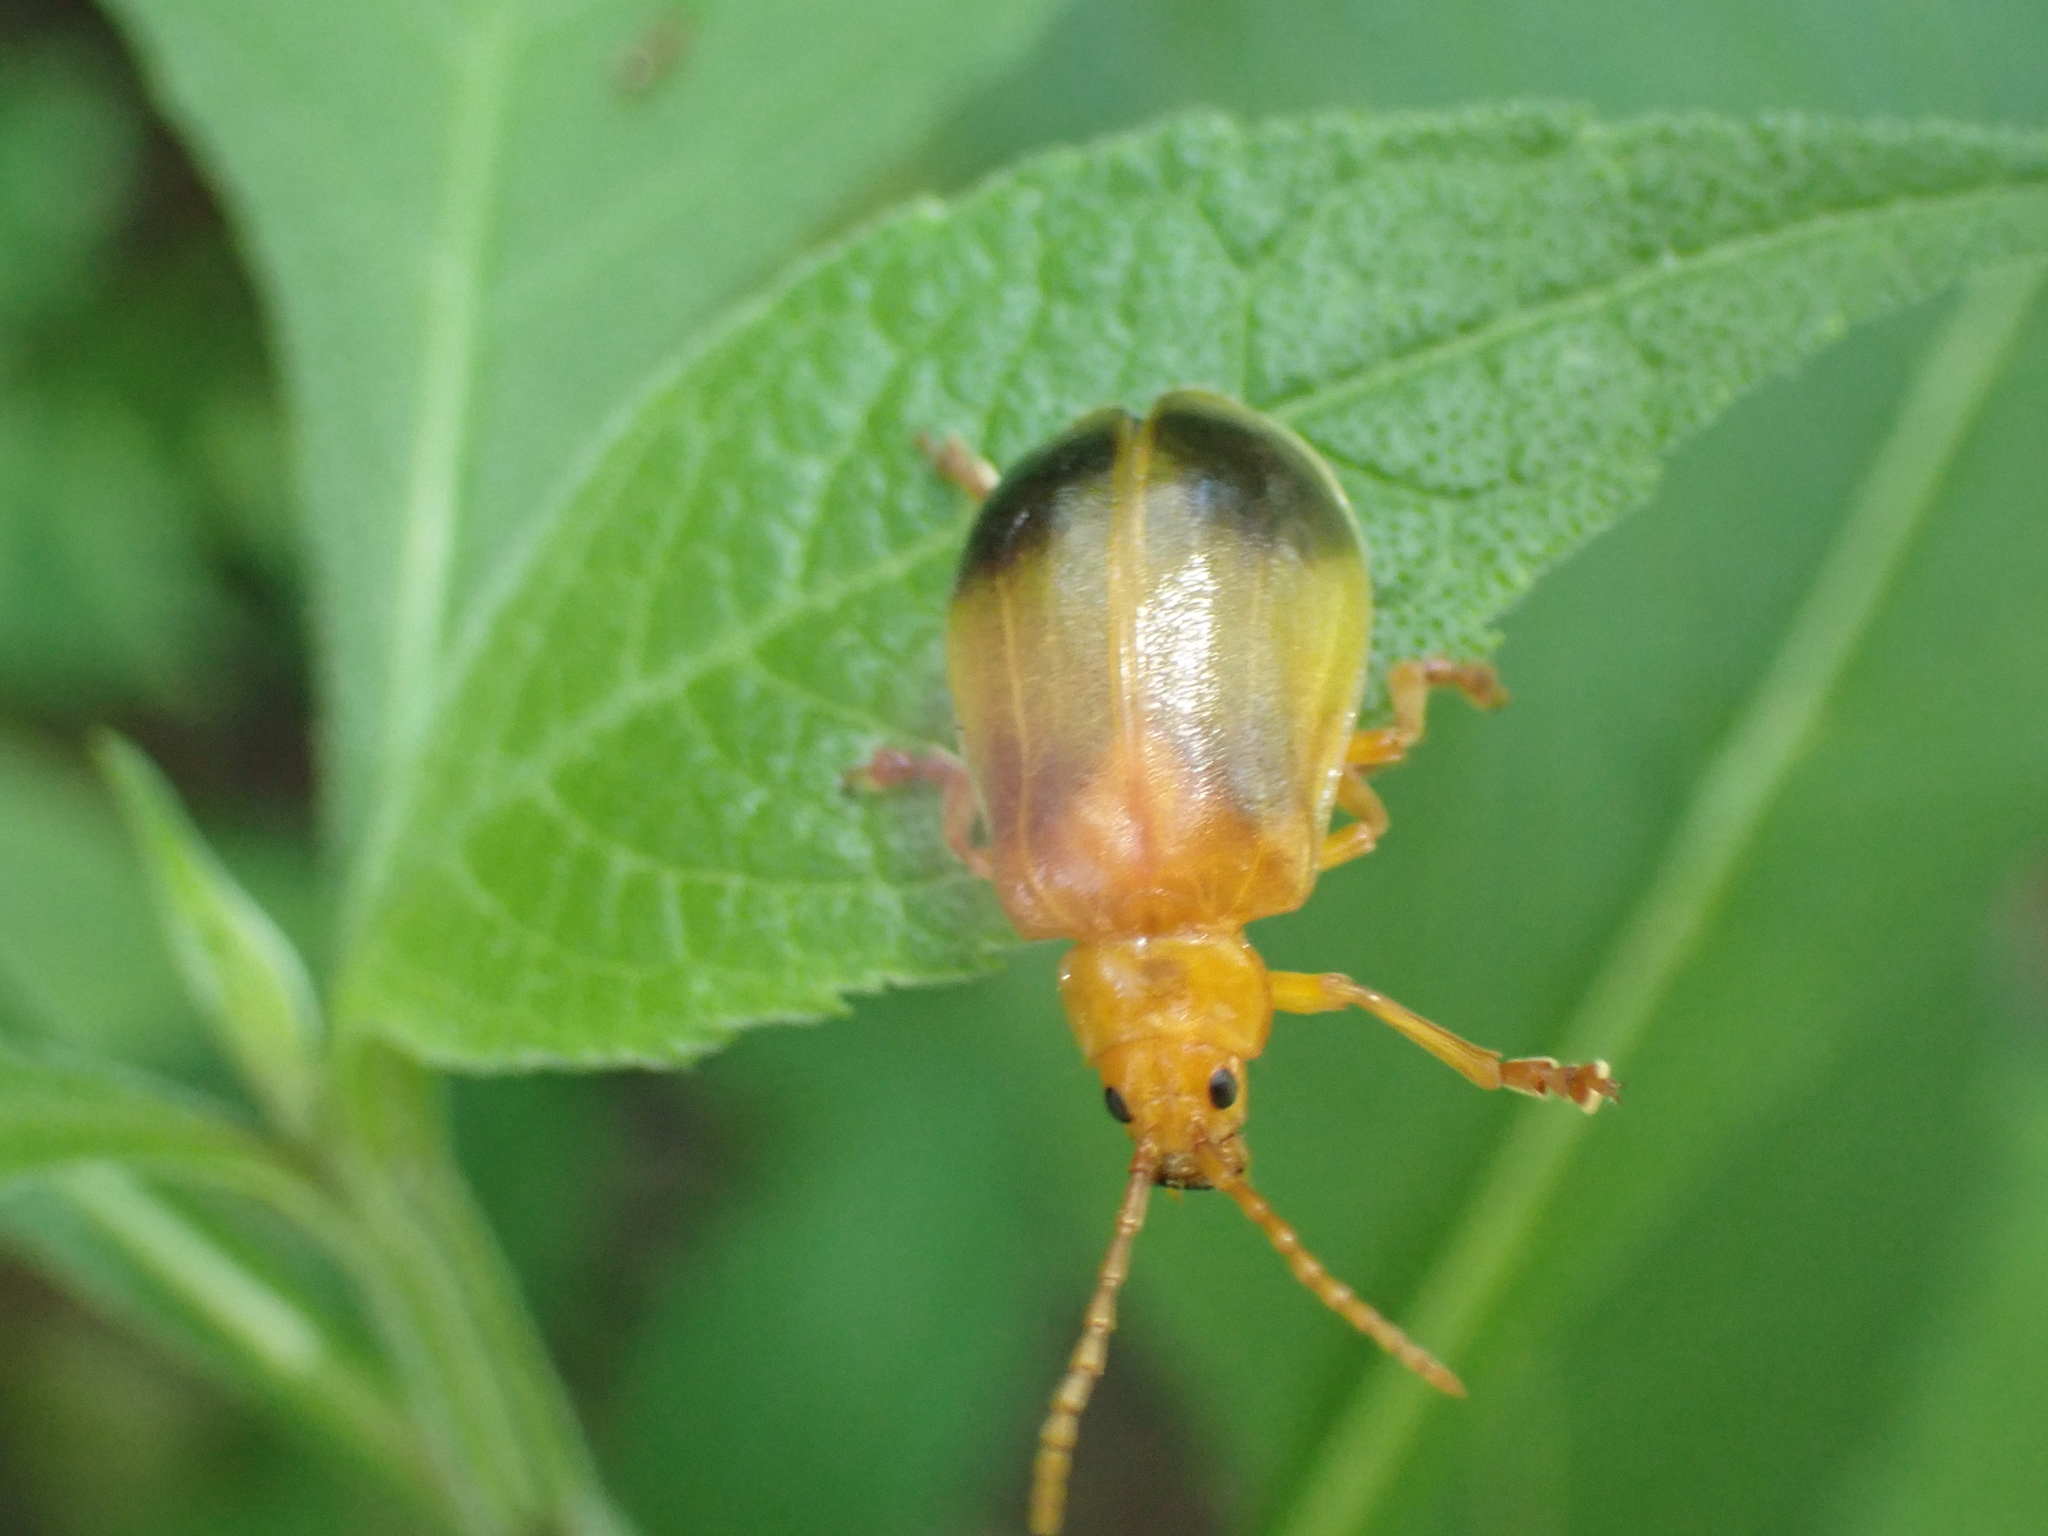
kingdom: Animalia
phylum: Arthropoda
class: Insecta
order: Coleoptera
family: Chrysomelidae
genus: Monocesta
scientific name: Monocesta coryli
